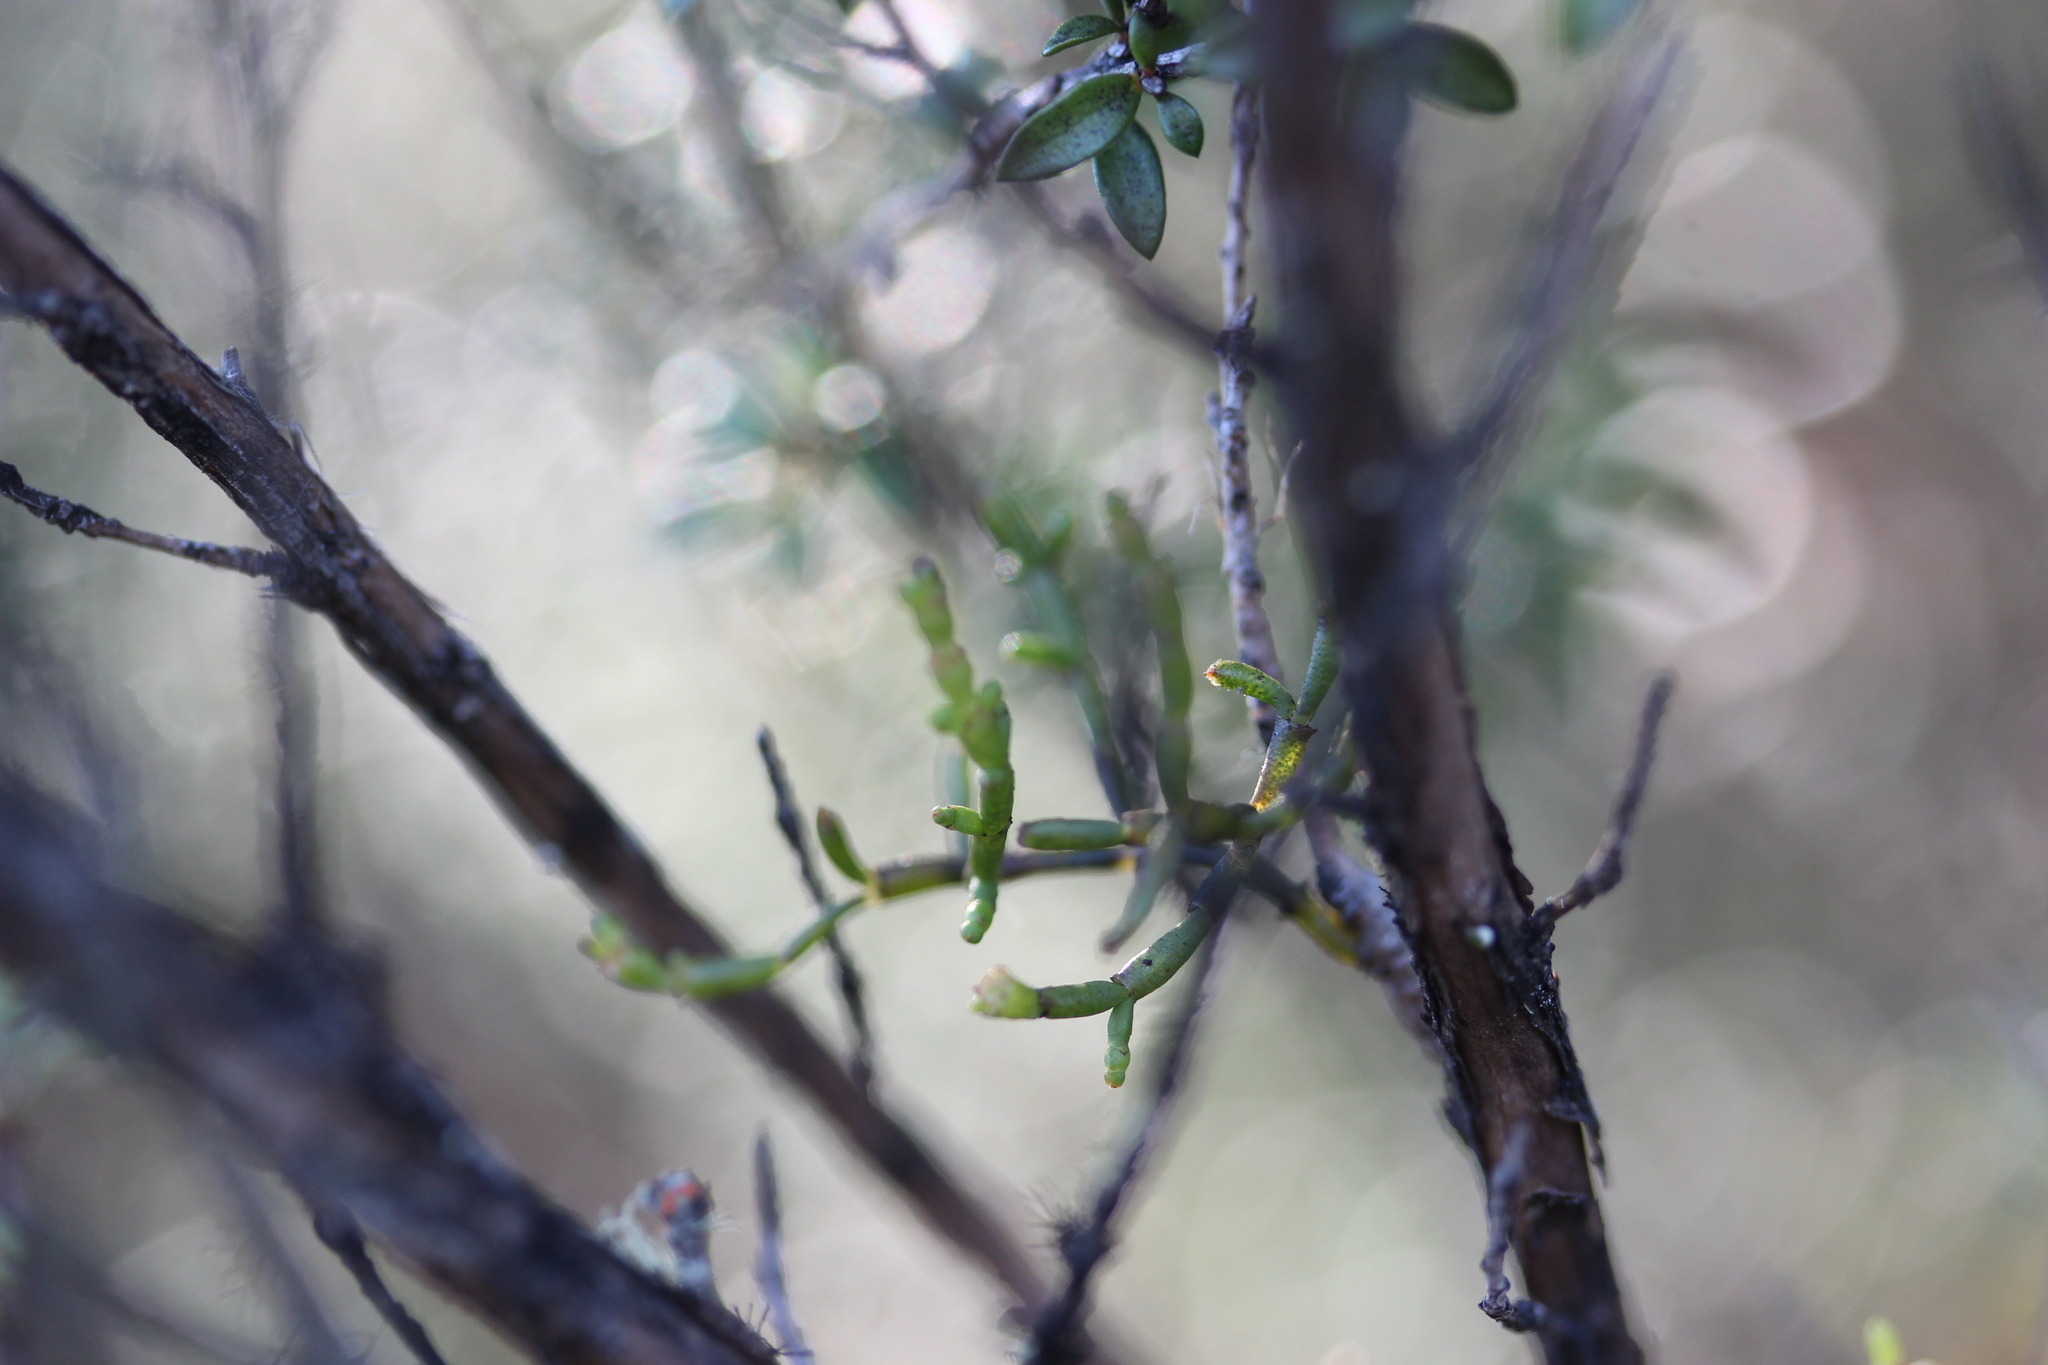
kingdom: Plantae
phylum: Tracheophyta
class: Magnoliopsida
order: Santalales
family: Viscaceae
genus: Korthalsella
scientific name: Korthalsella salicornioides
